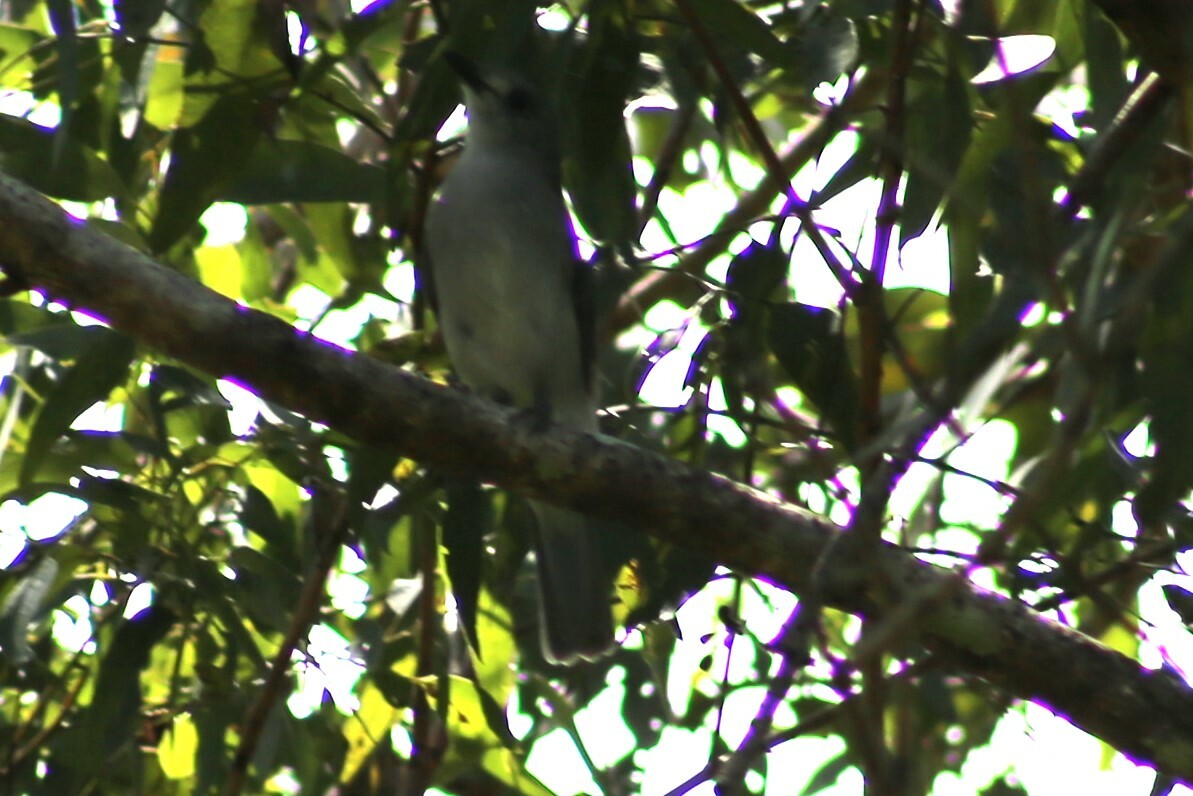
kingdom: Animalia
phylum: Chordata
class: Aves
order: Passeriformes
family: Pachycephalidae
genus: Colluricincla
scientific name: Colluricincla harmonica
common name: Grey shrikethrush
